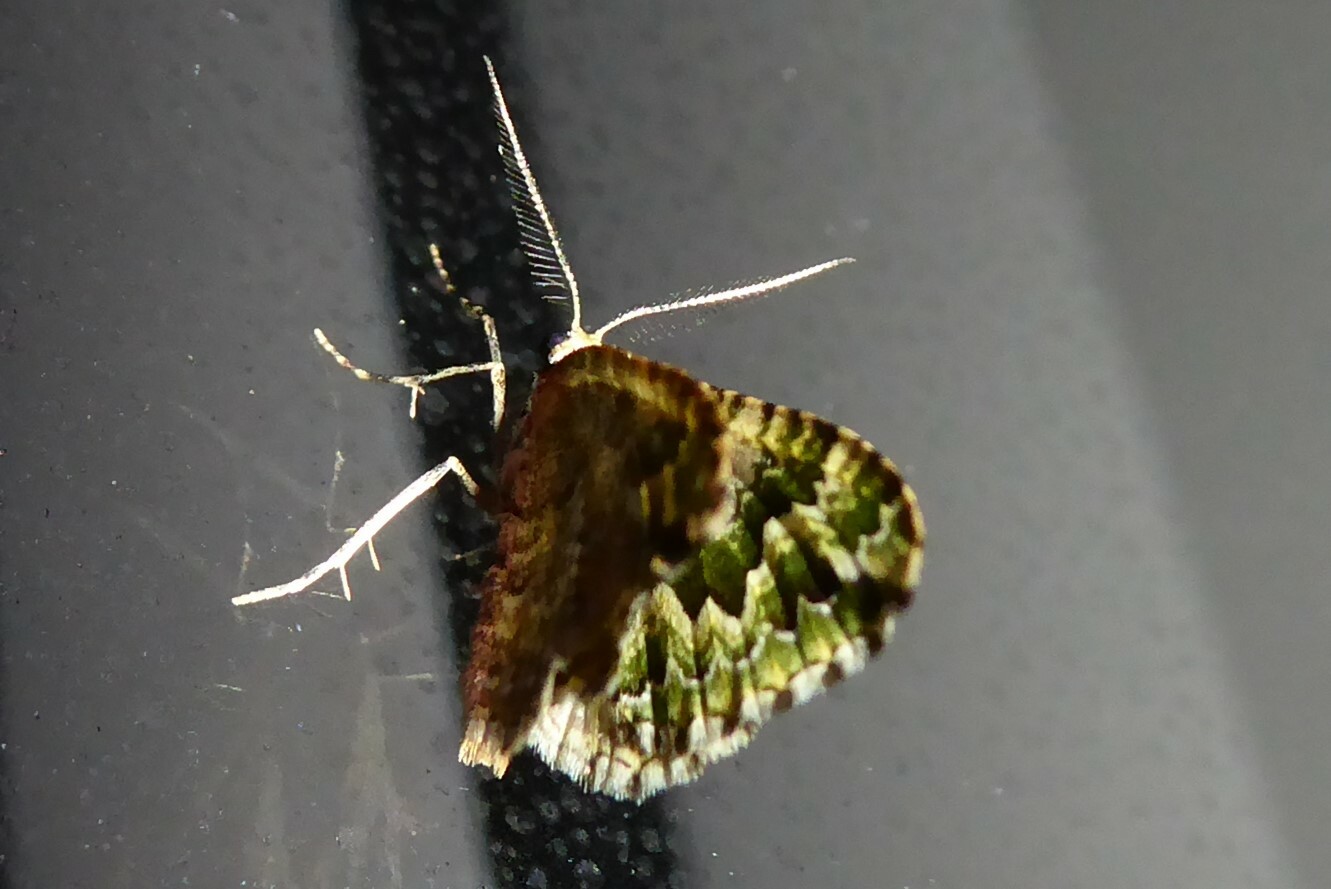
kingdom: Animalia
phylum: Arthropoda
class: Insecta
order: Lepidoptera
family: Geometridae
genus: Asaphodes
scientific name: Asaphodes beata
